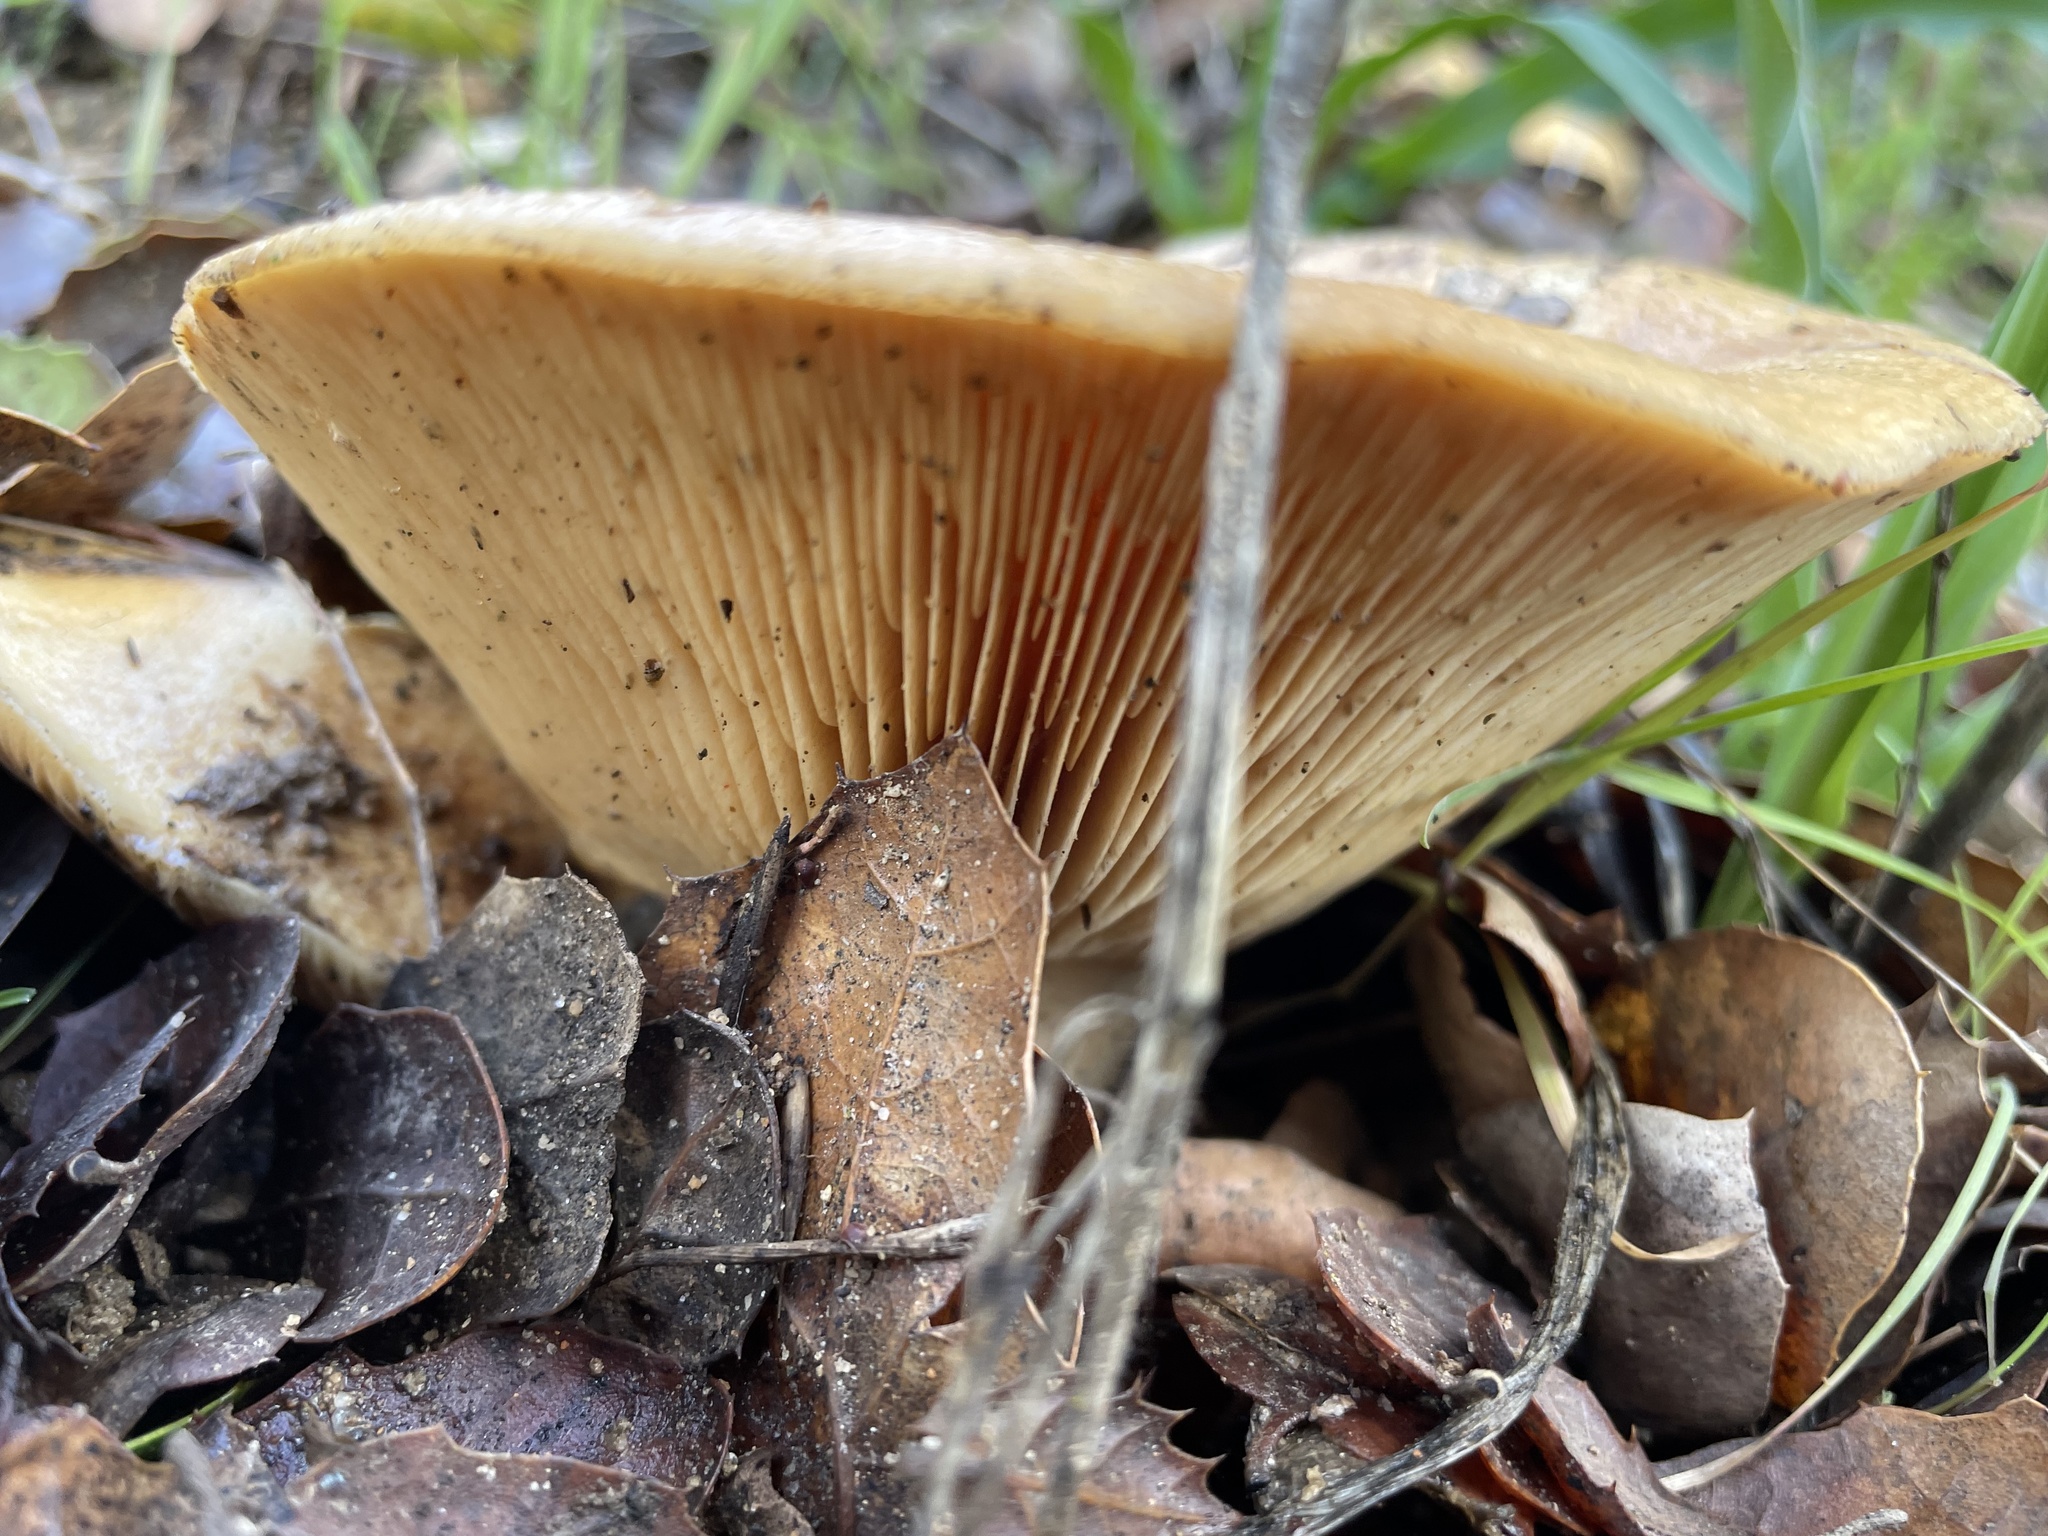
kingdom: Fungi
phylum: Basidiomycota
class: Agaricomycetes
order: Russulales
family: Russulaceae
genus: Lactarius
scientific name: Lactarius alnicola
